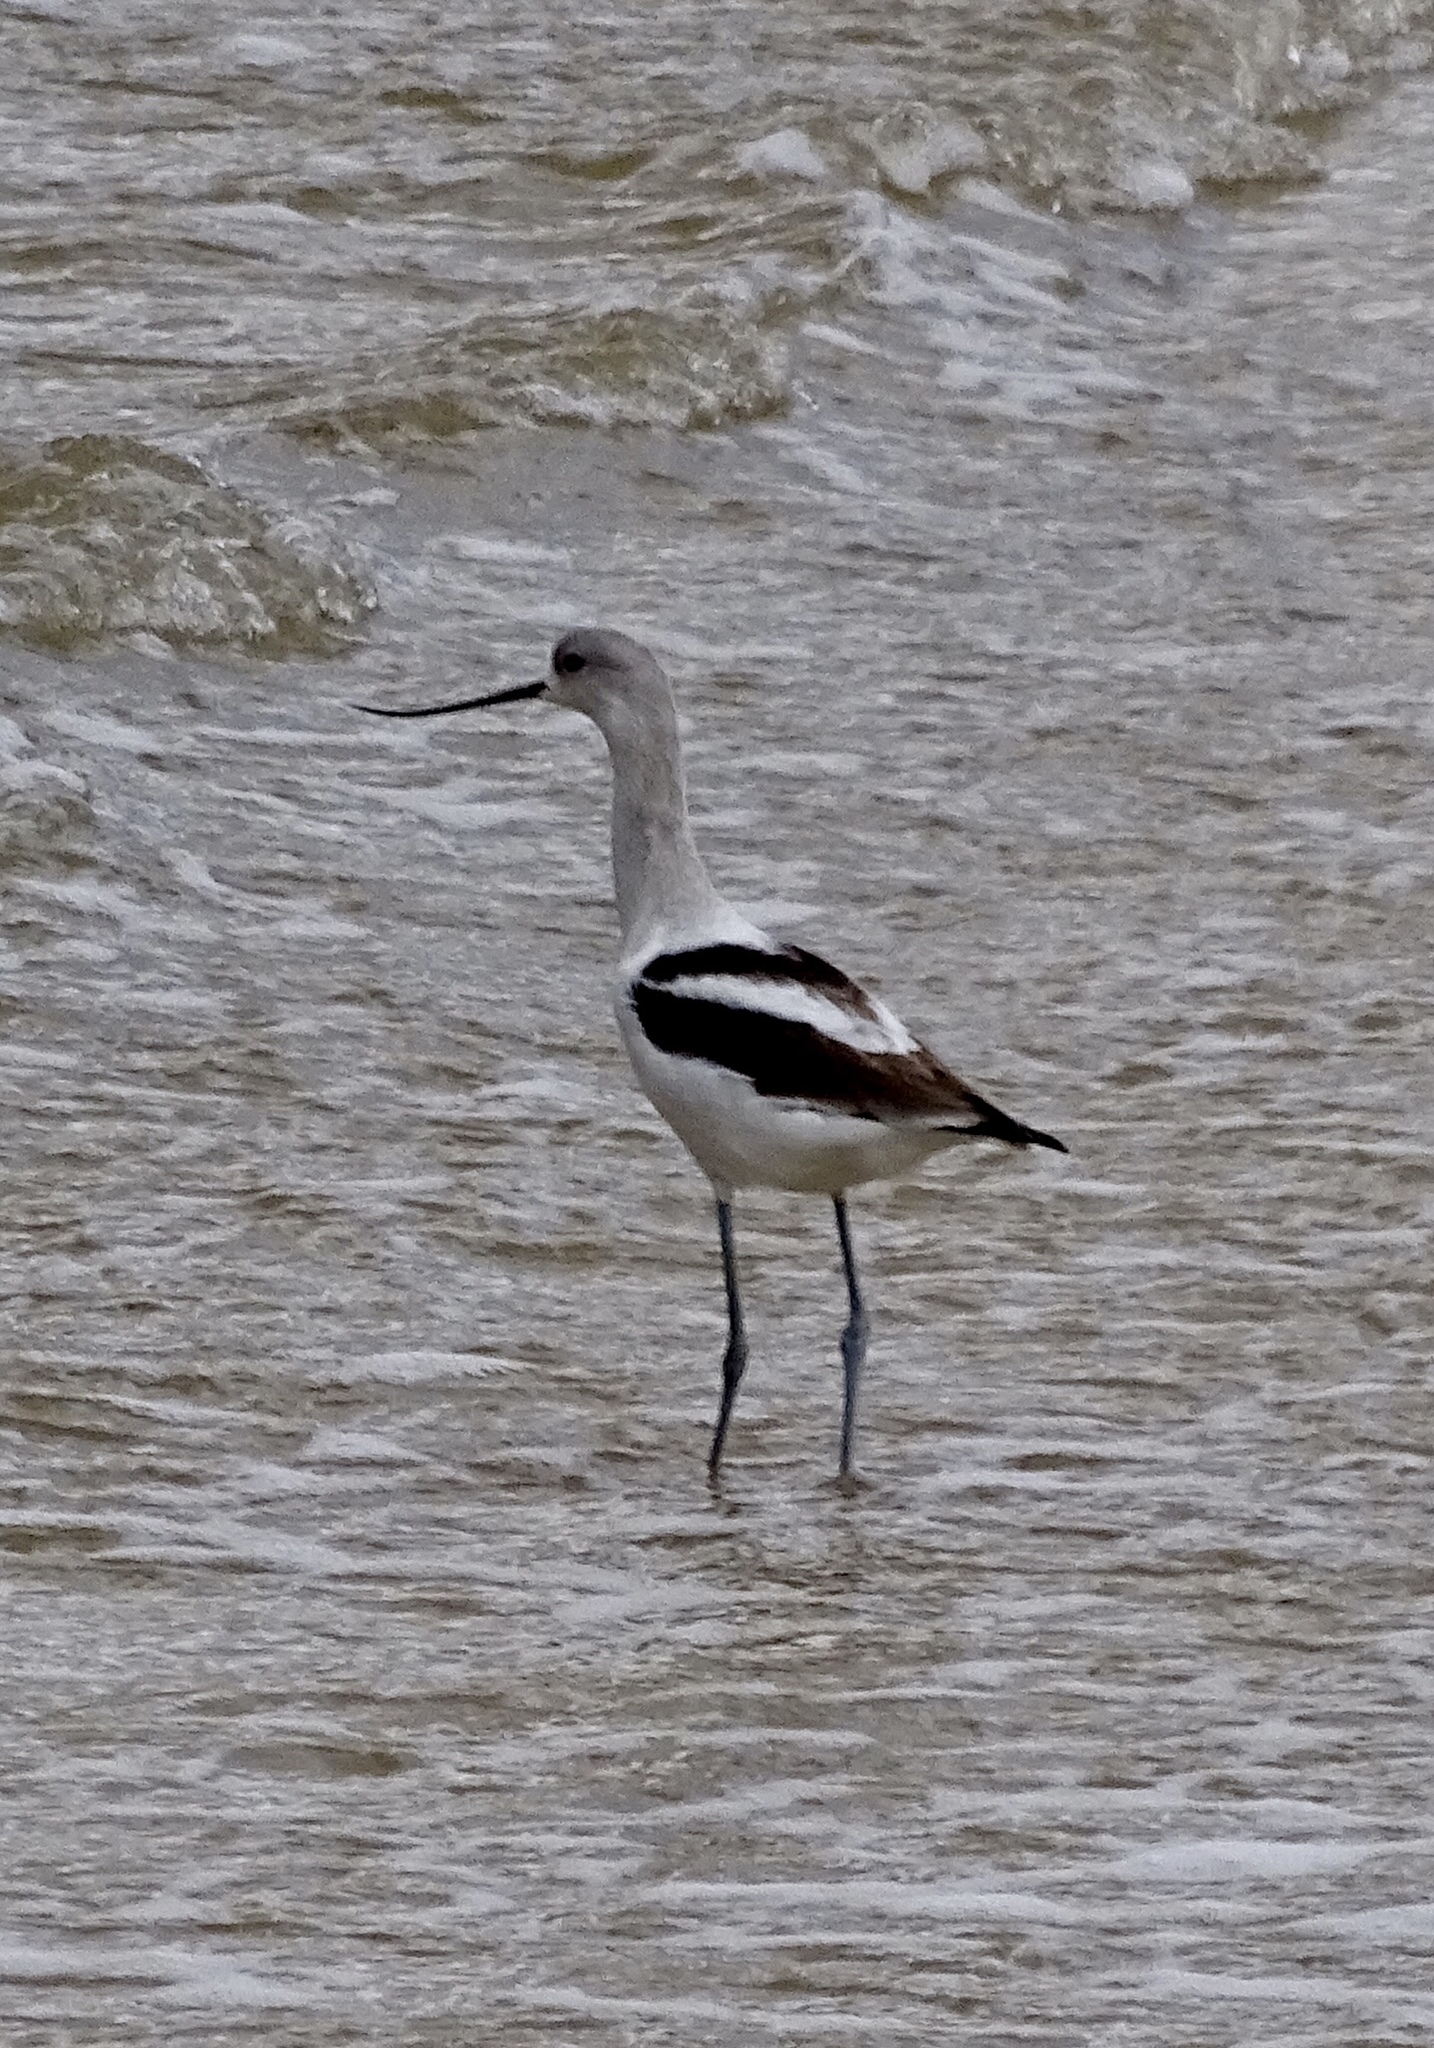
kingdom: Animalia
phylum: Chordata
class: Aves
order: Charadriiformes
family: Recurvirostridae
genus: Recurvirostra
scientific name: Recurvirostra americana
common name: American avocet
